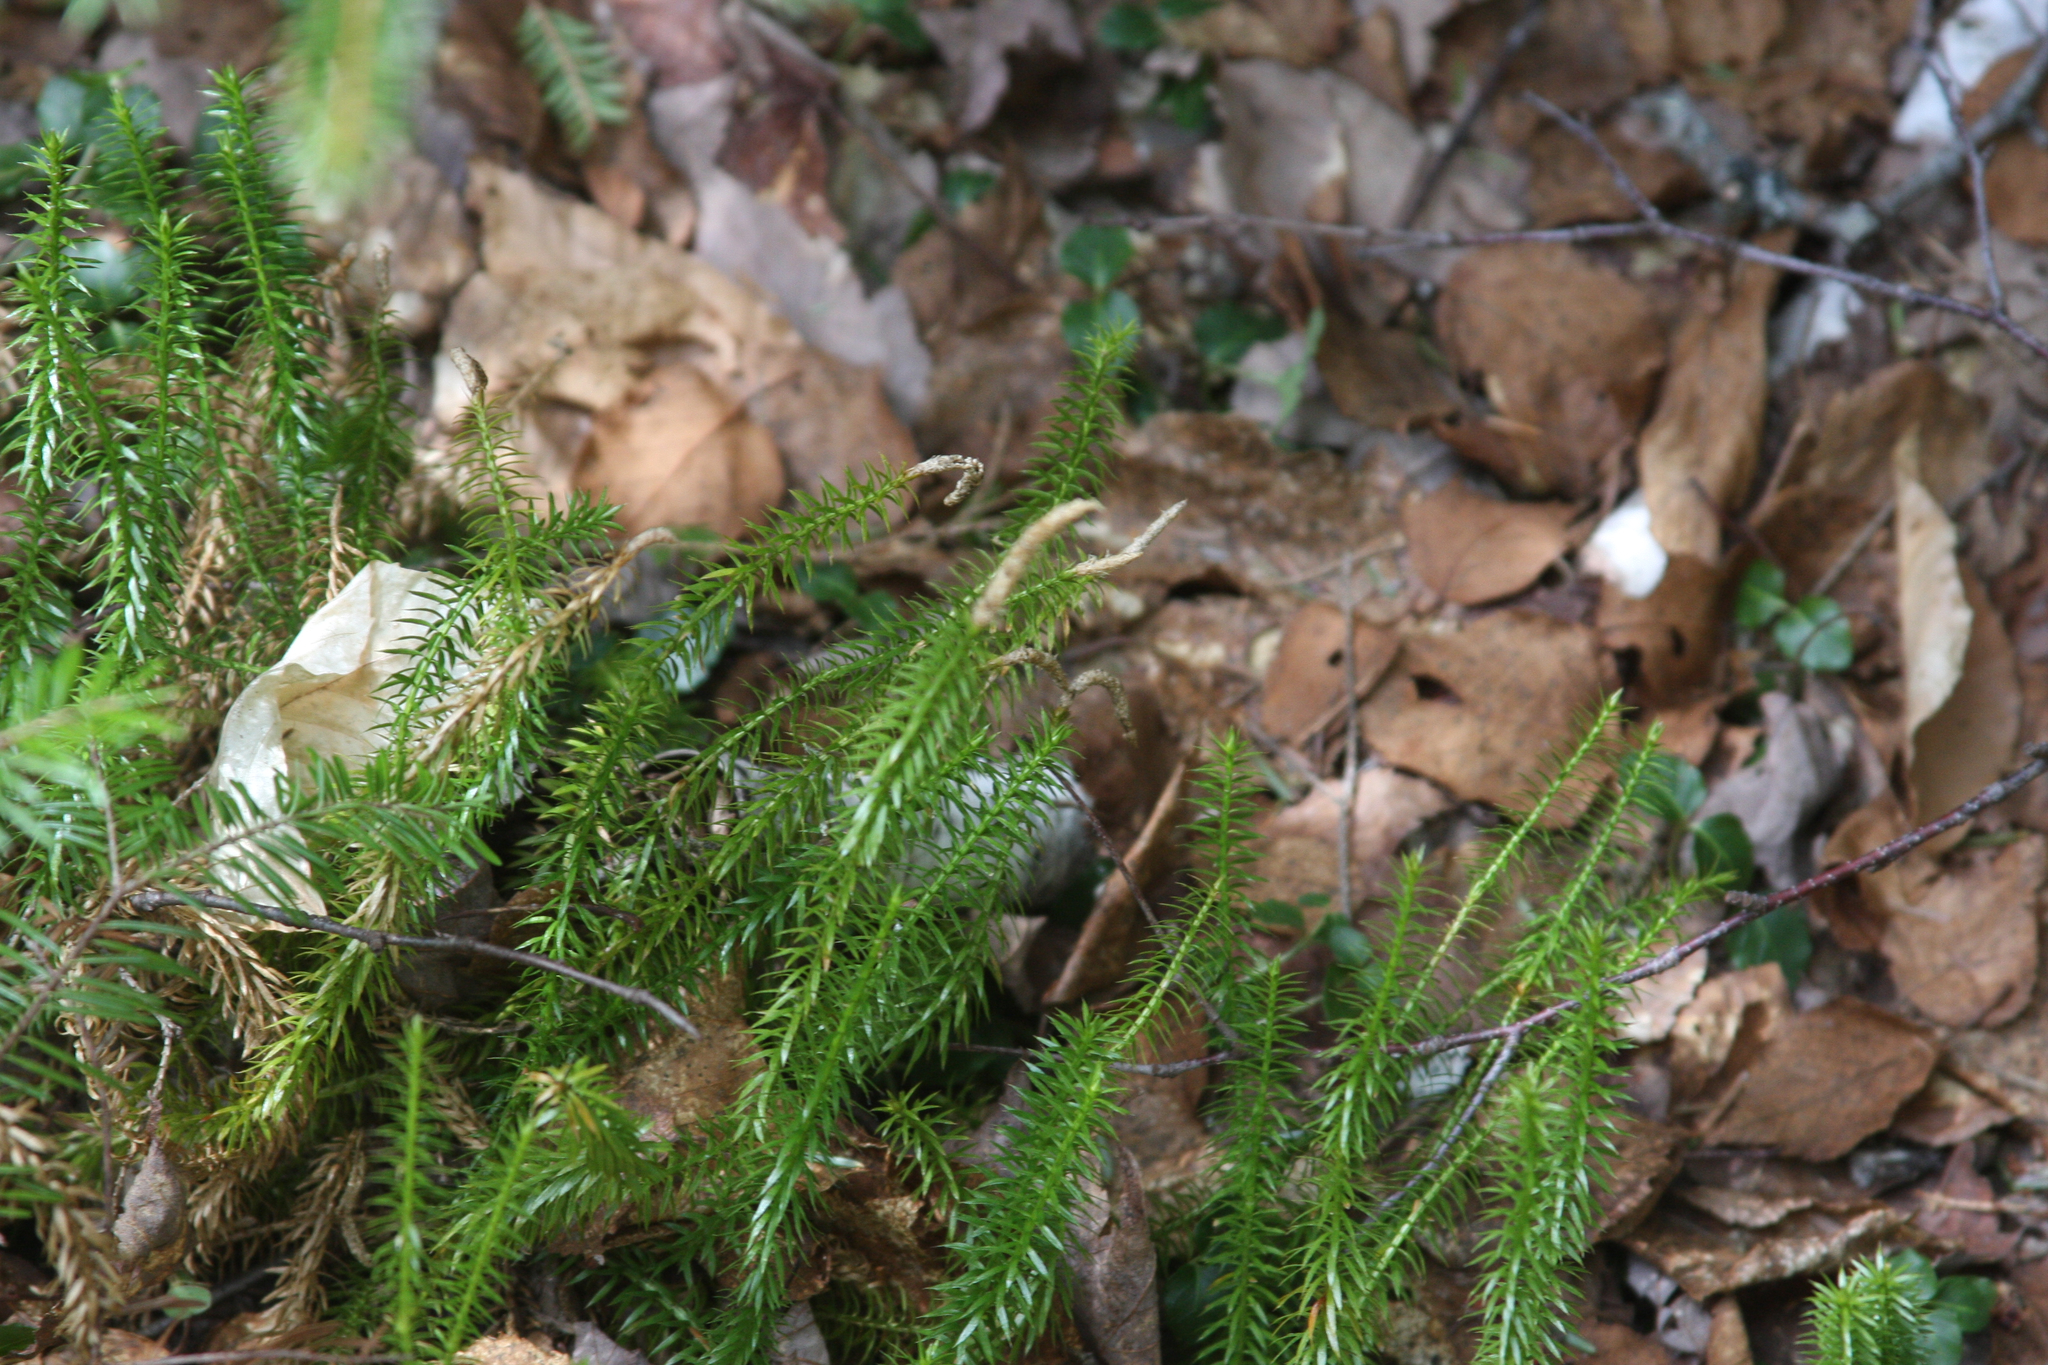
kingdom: Plantae
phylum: Tracheophyta
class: Lycopodiopsida
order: Lycopodiales
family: Lycopodiaceae
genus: Spinulum
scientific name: Spinulum annotinum
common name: Interrupted club-moss
